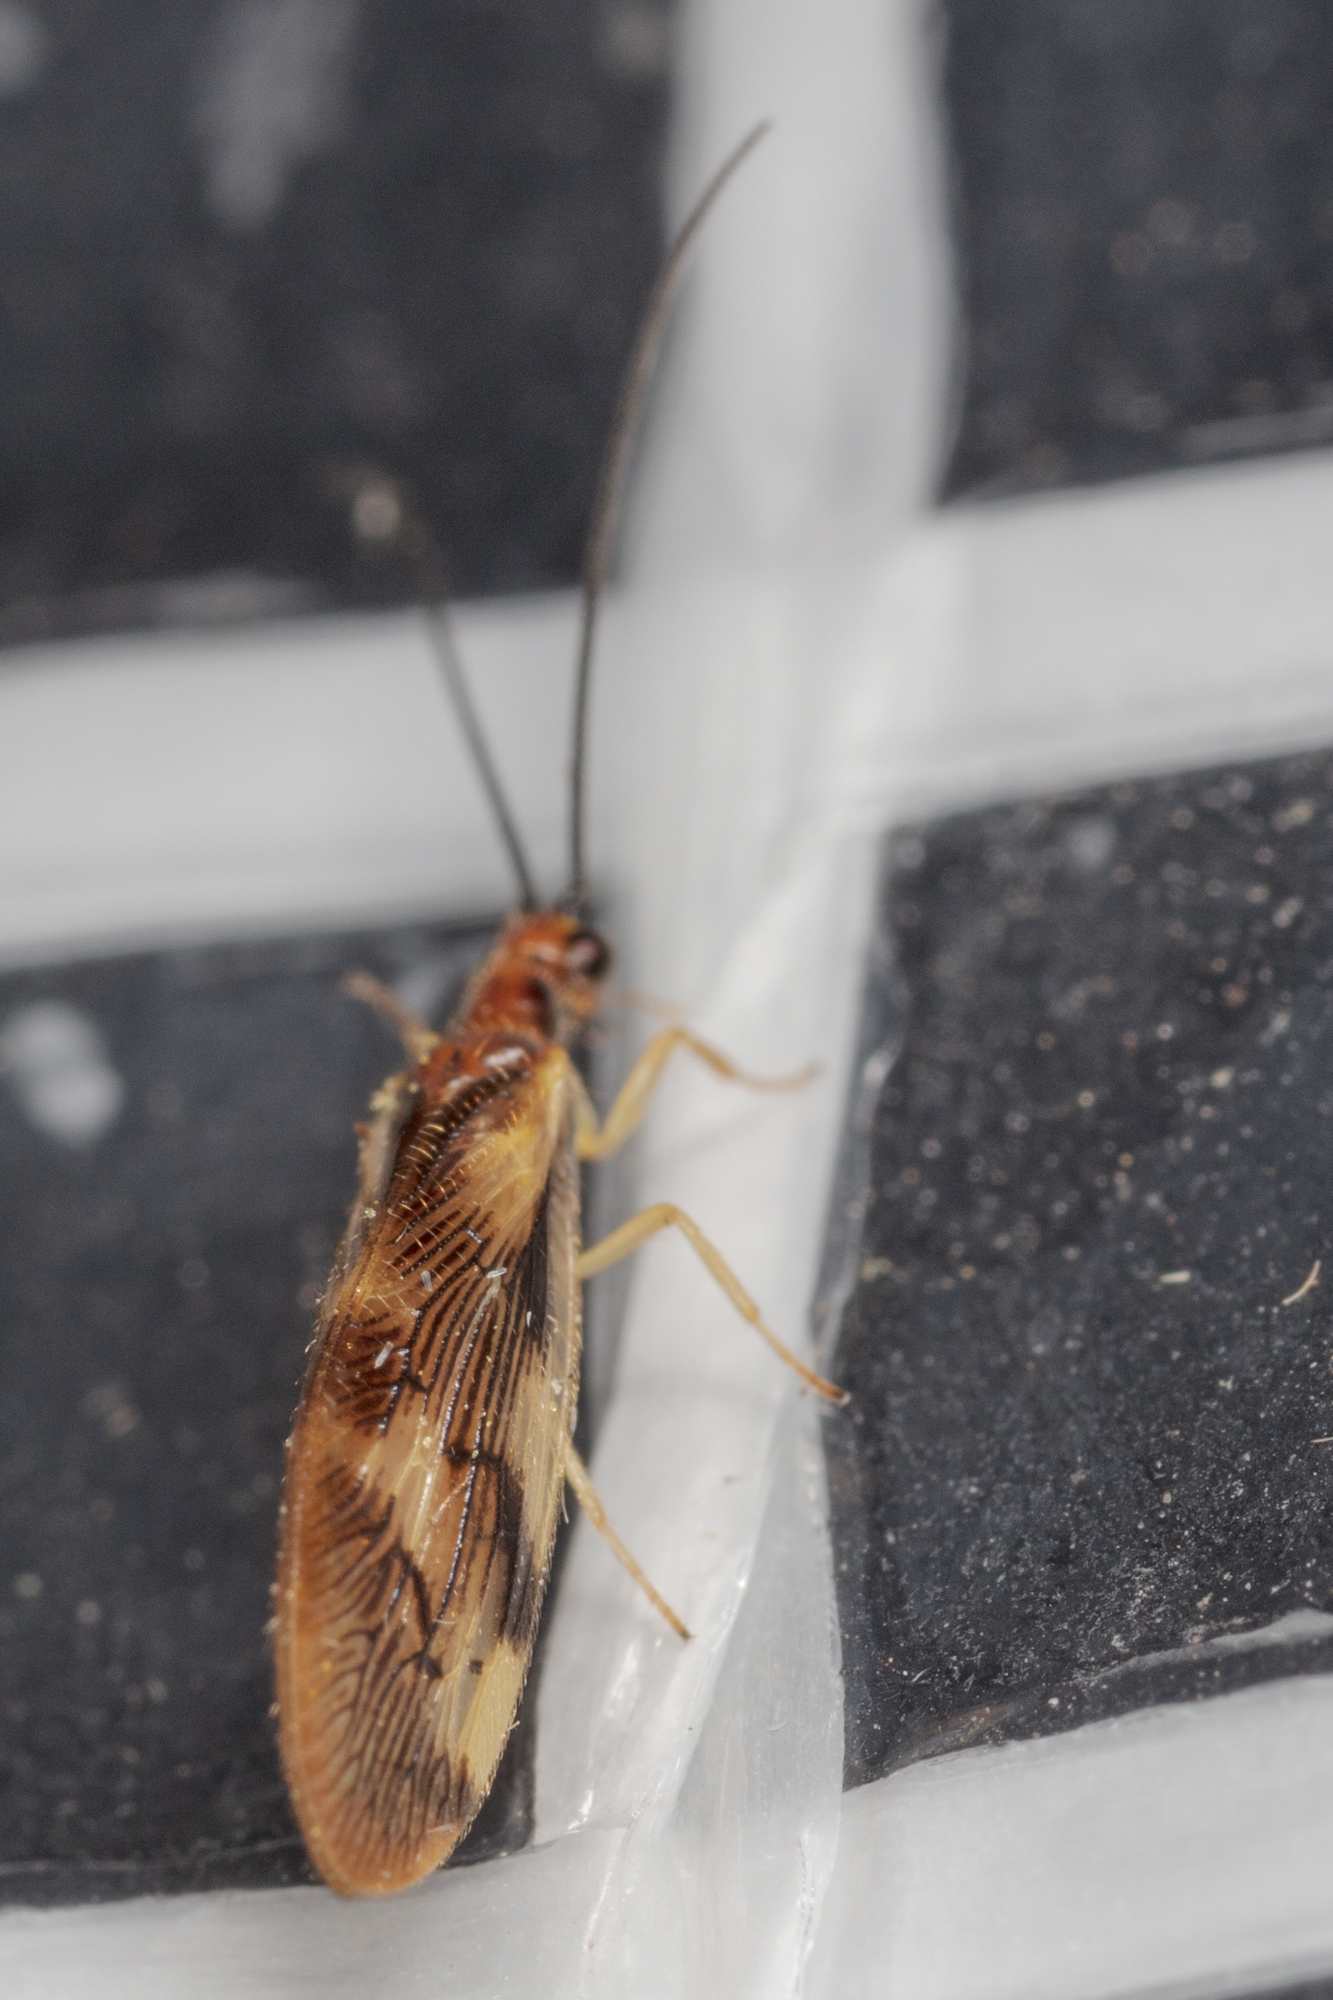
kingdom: Animalia
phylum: Arthropoda
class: Insecta
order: Neuroptera
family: Sisyridae
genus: Climacia
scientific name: Climacia areolaris
